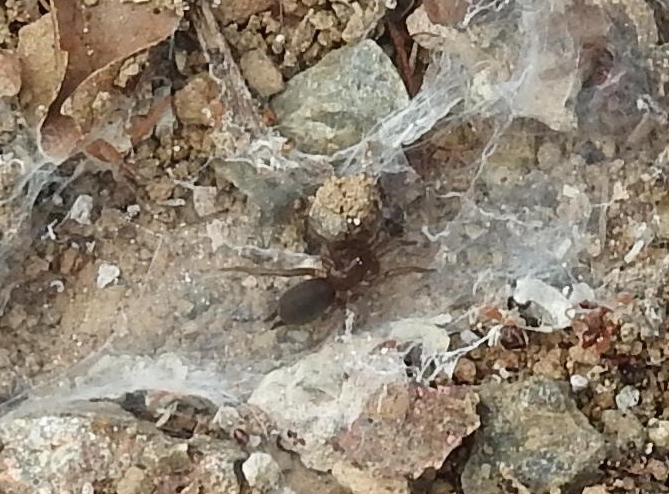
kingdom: Animalia
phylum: Arthropoda
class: Arachnida
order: Araneae
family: Euagridae
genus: Euagrus
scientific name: Euagrus gertschi
